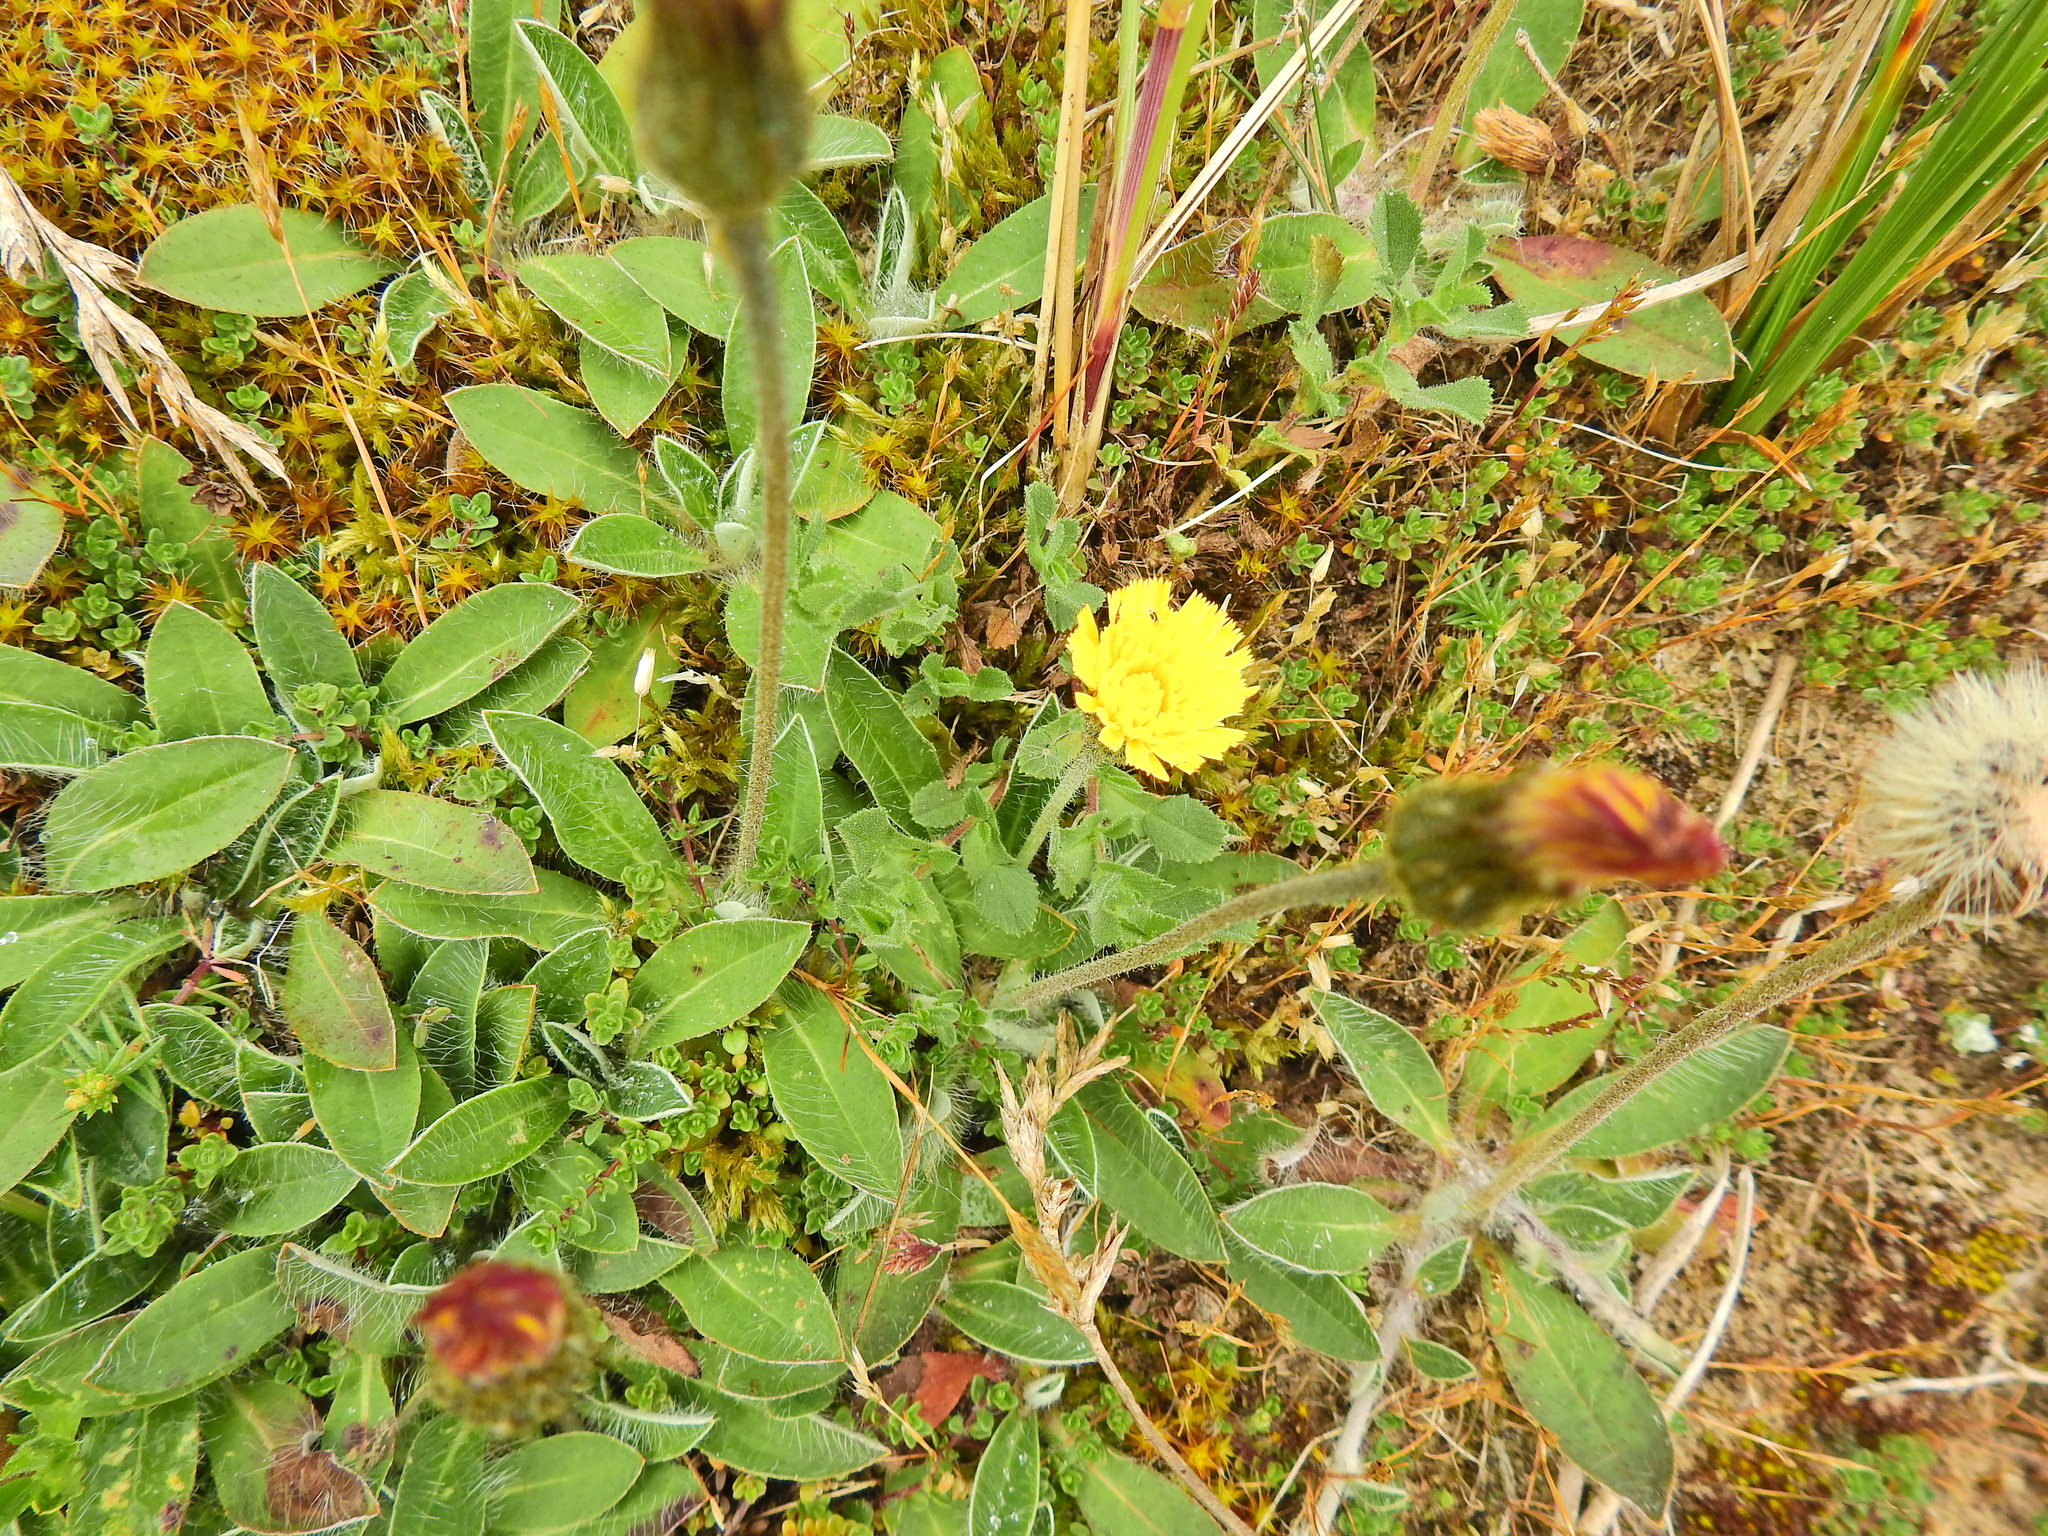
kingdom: Plantae
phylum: Tracheophyta
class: Magnoliopsida
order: Asterales
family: Asteraceae
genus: Pilosella
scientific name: Pilosella officinarum
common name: Mouse-ear hawkweed
